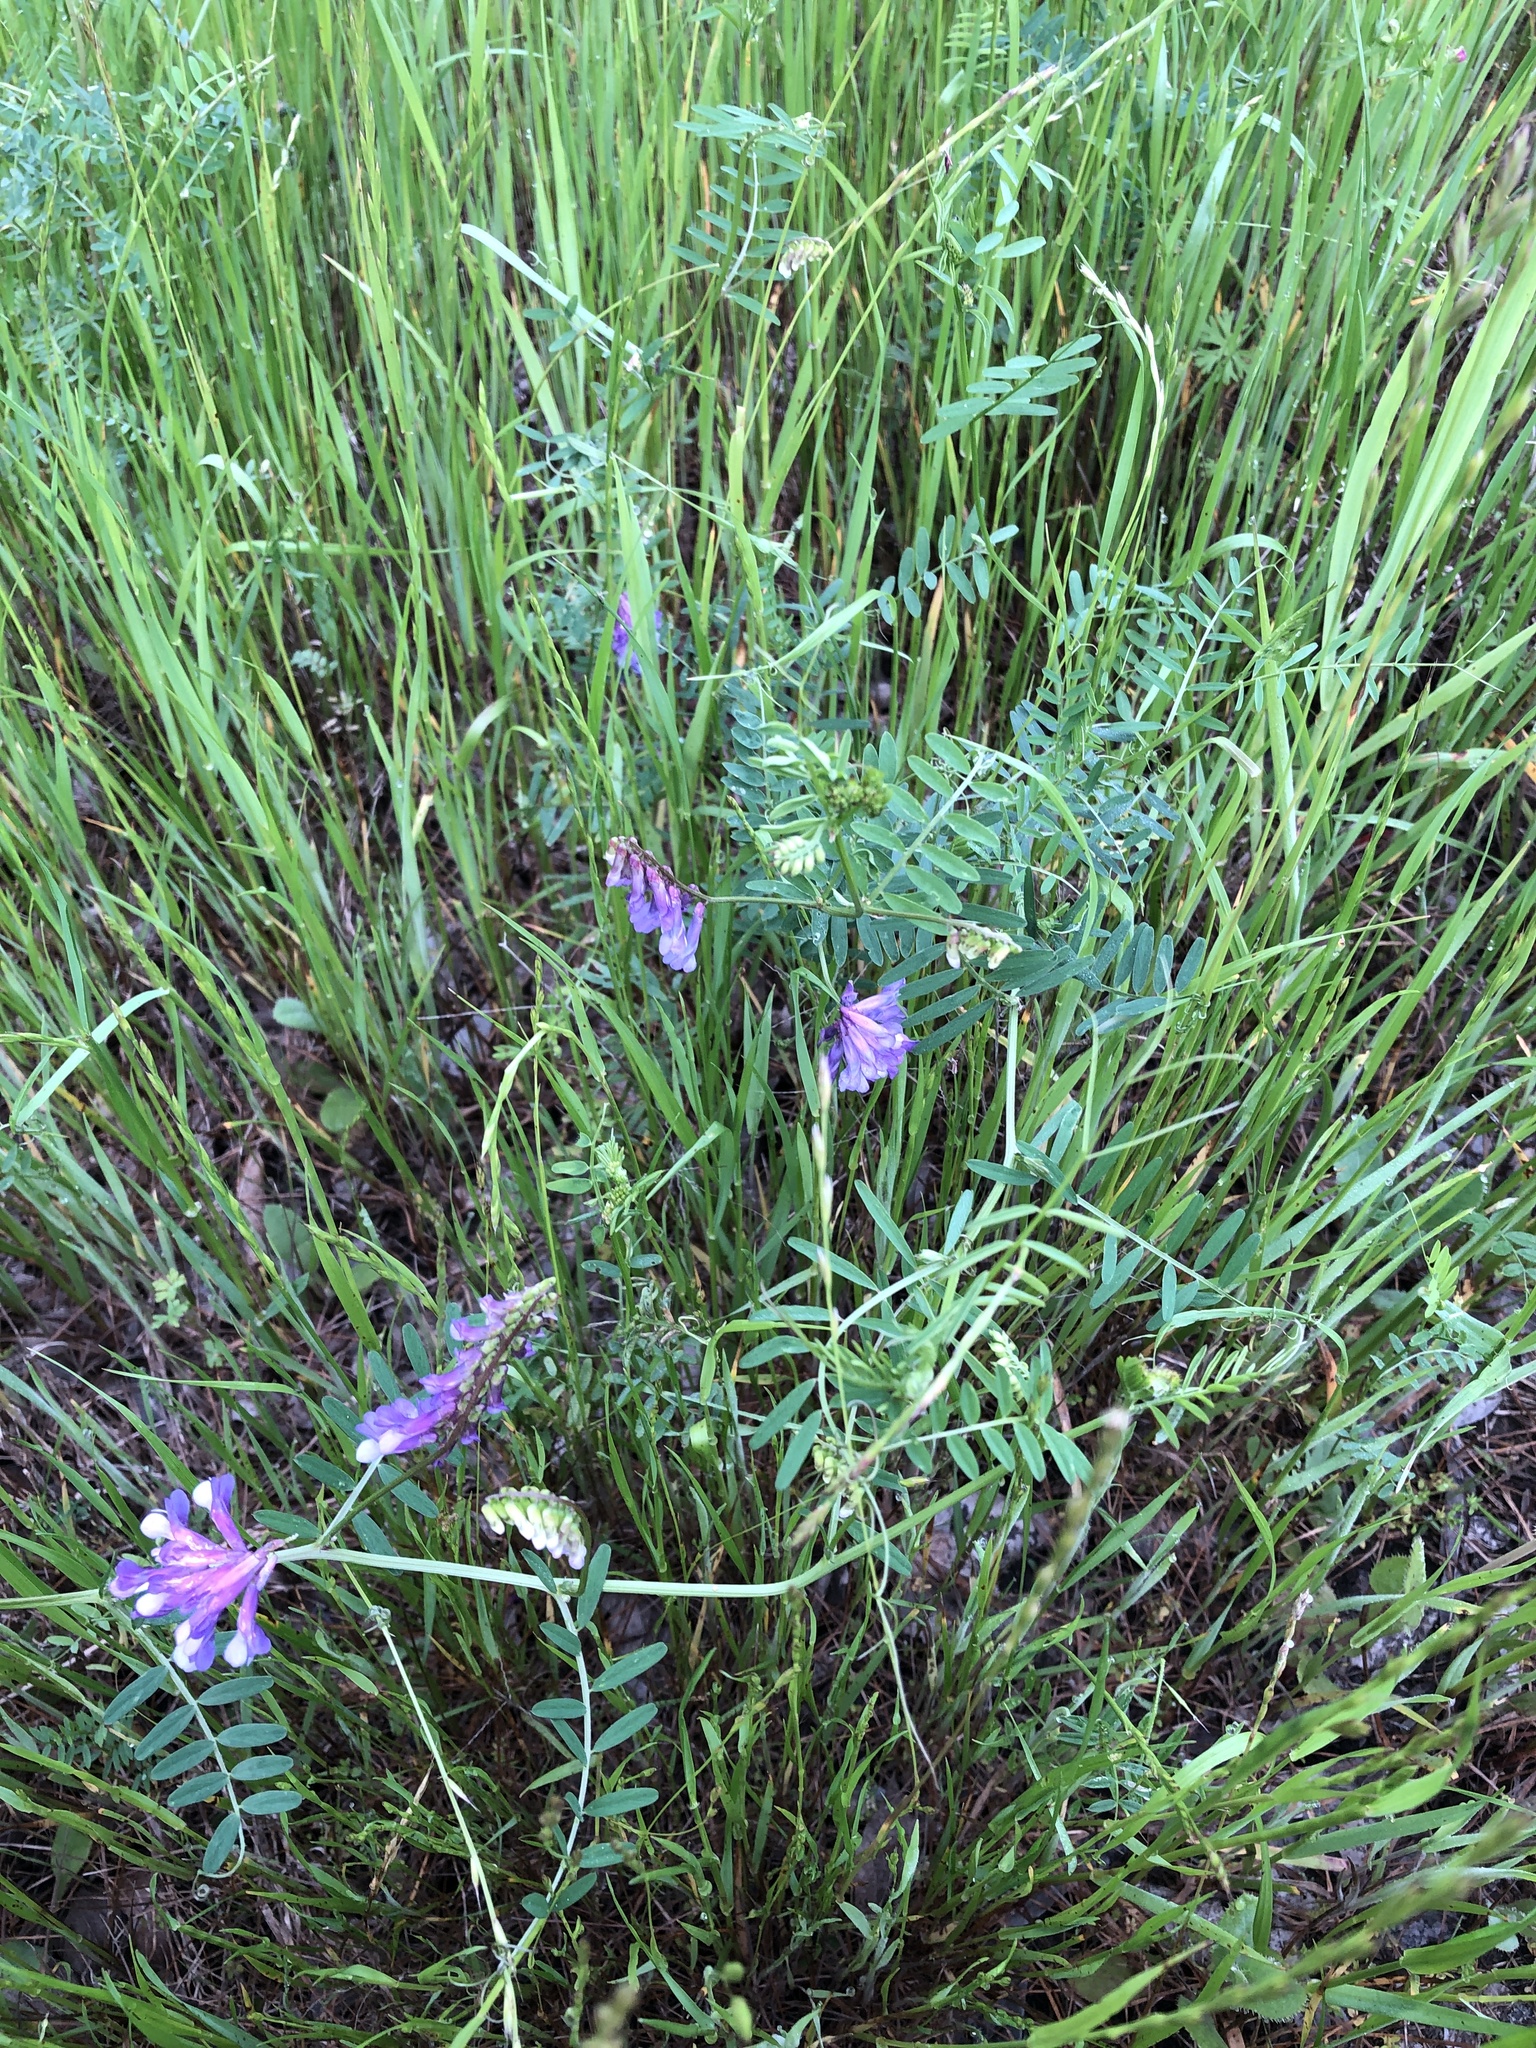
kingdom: Plantae
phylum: Tracheophyta
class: Magnoliopsida
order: Fabales
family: Fabaceae
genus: Vicia
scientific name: Vicia villosa
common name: Fodder vetch
